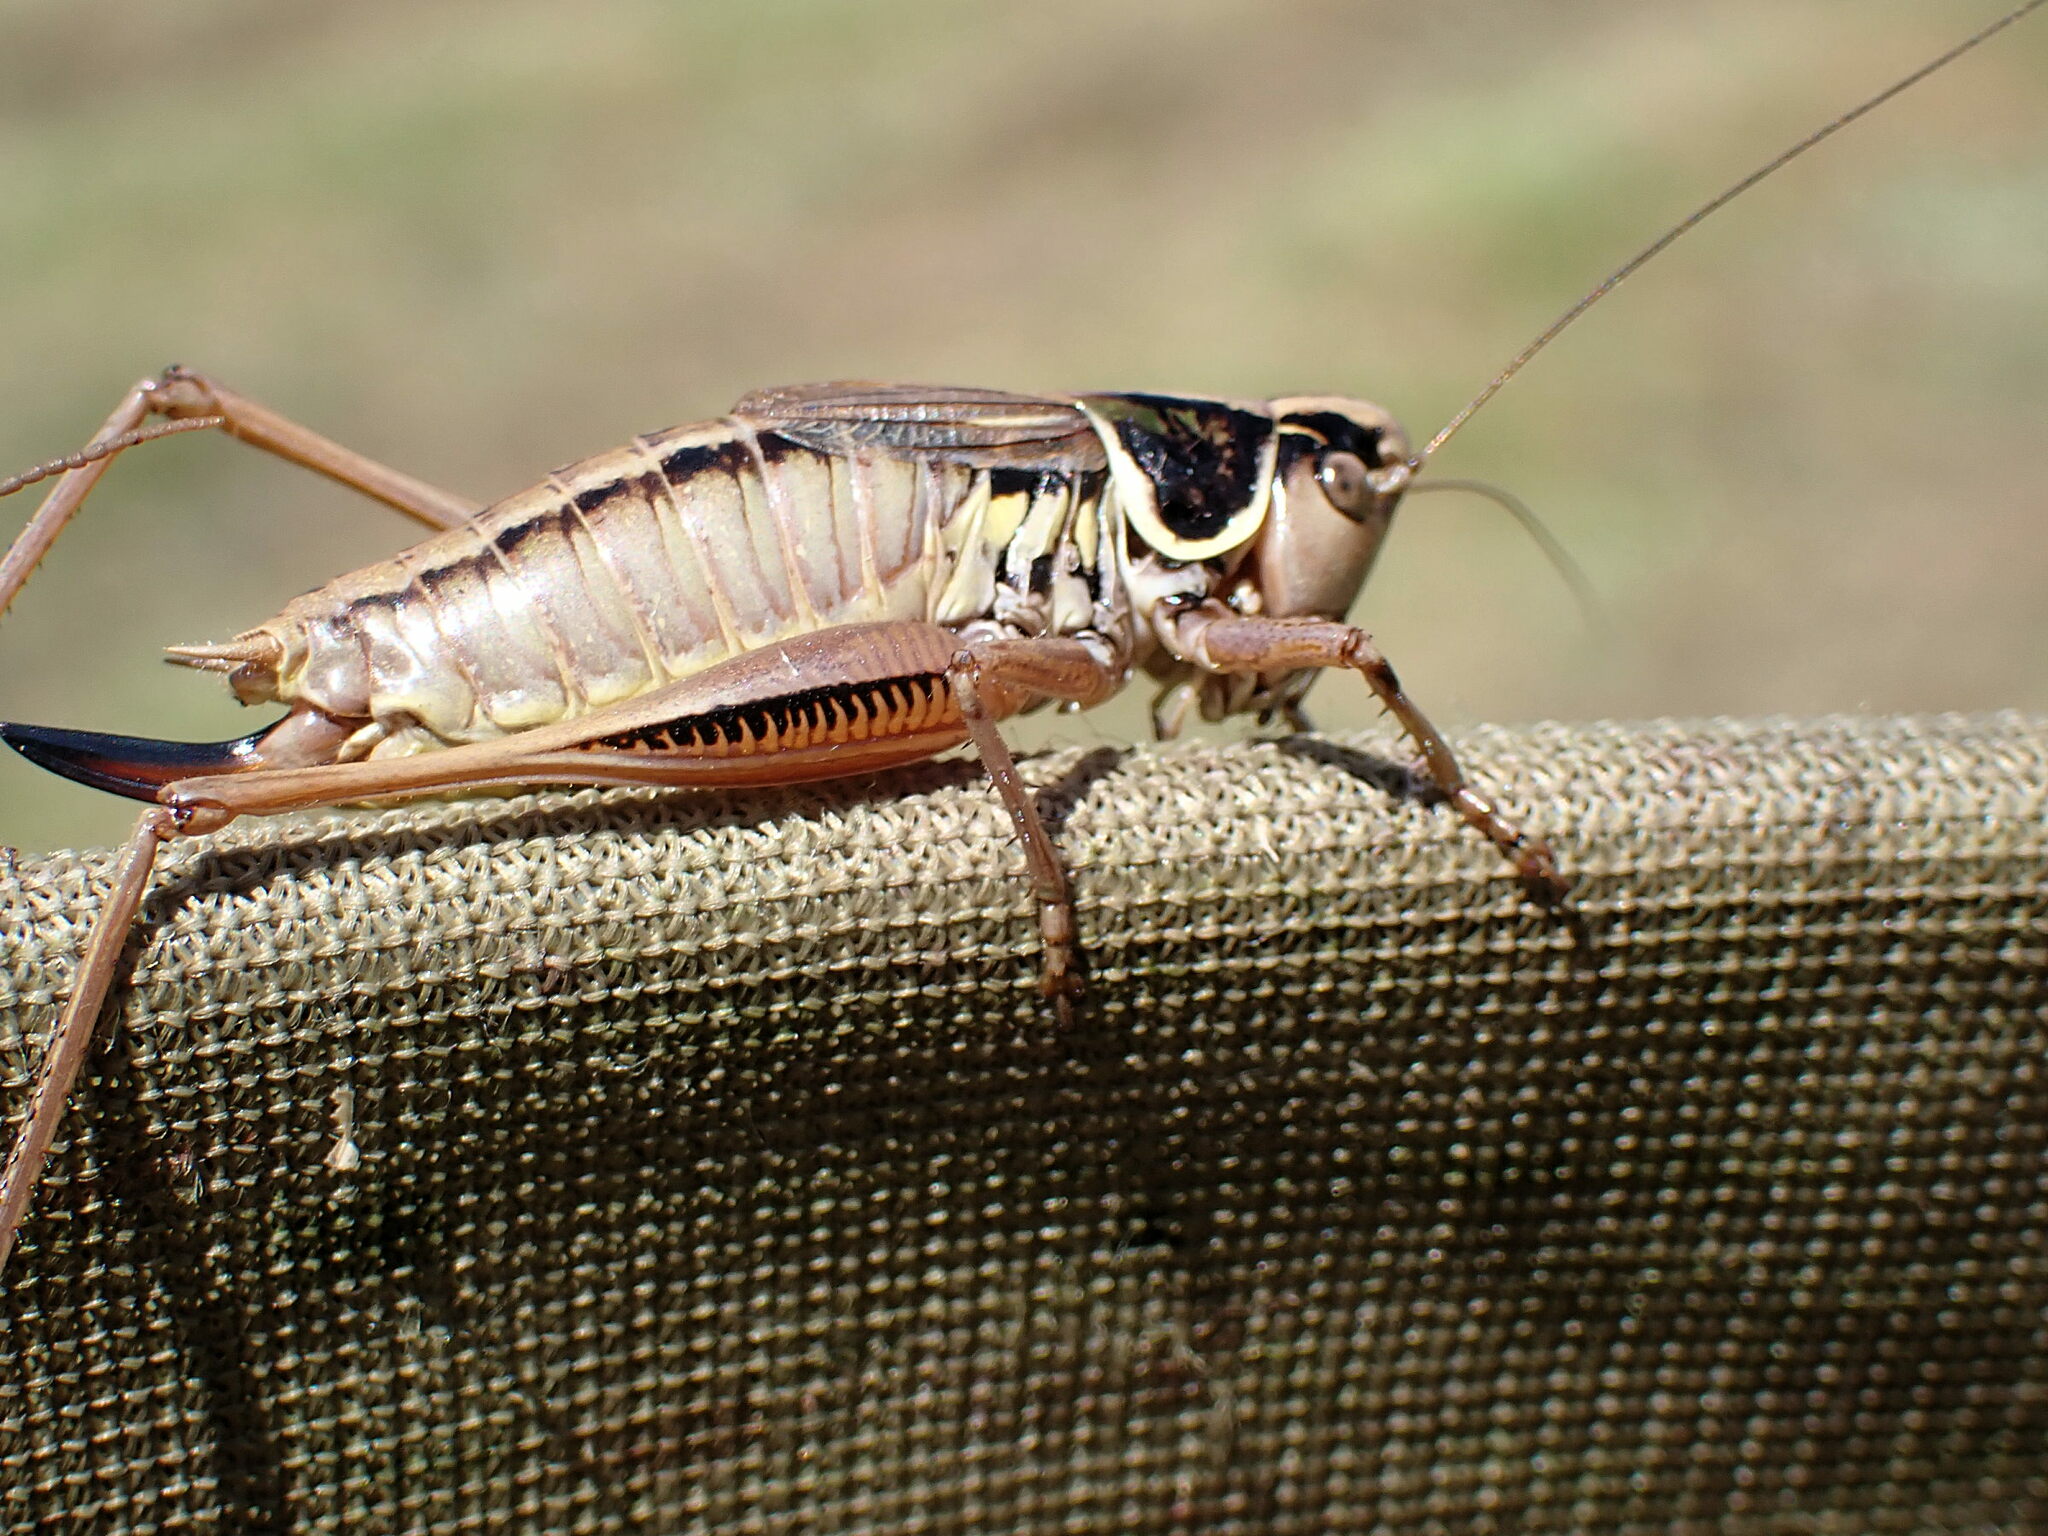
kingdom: Animalia
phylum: Arthropoda
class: Insecta
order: Orthoptera
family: Tettigoniidae
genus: Roeseliana
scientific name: Roeseliana roeselii
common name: Roesel's bush cricket
